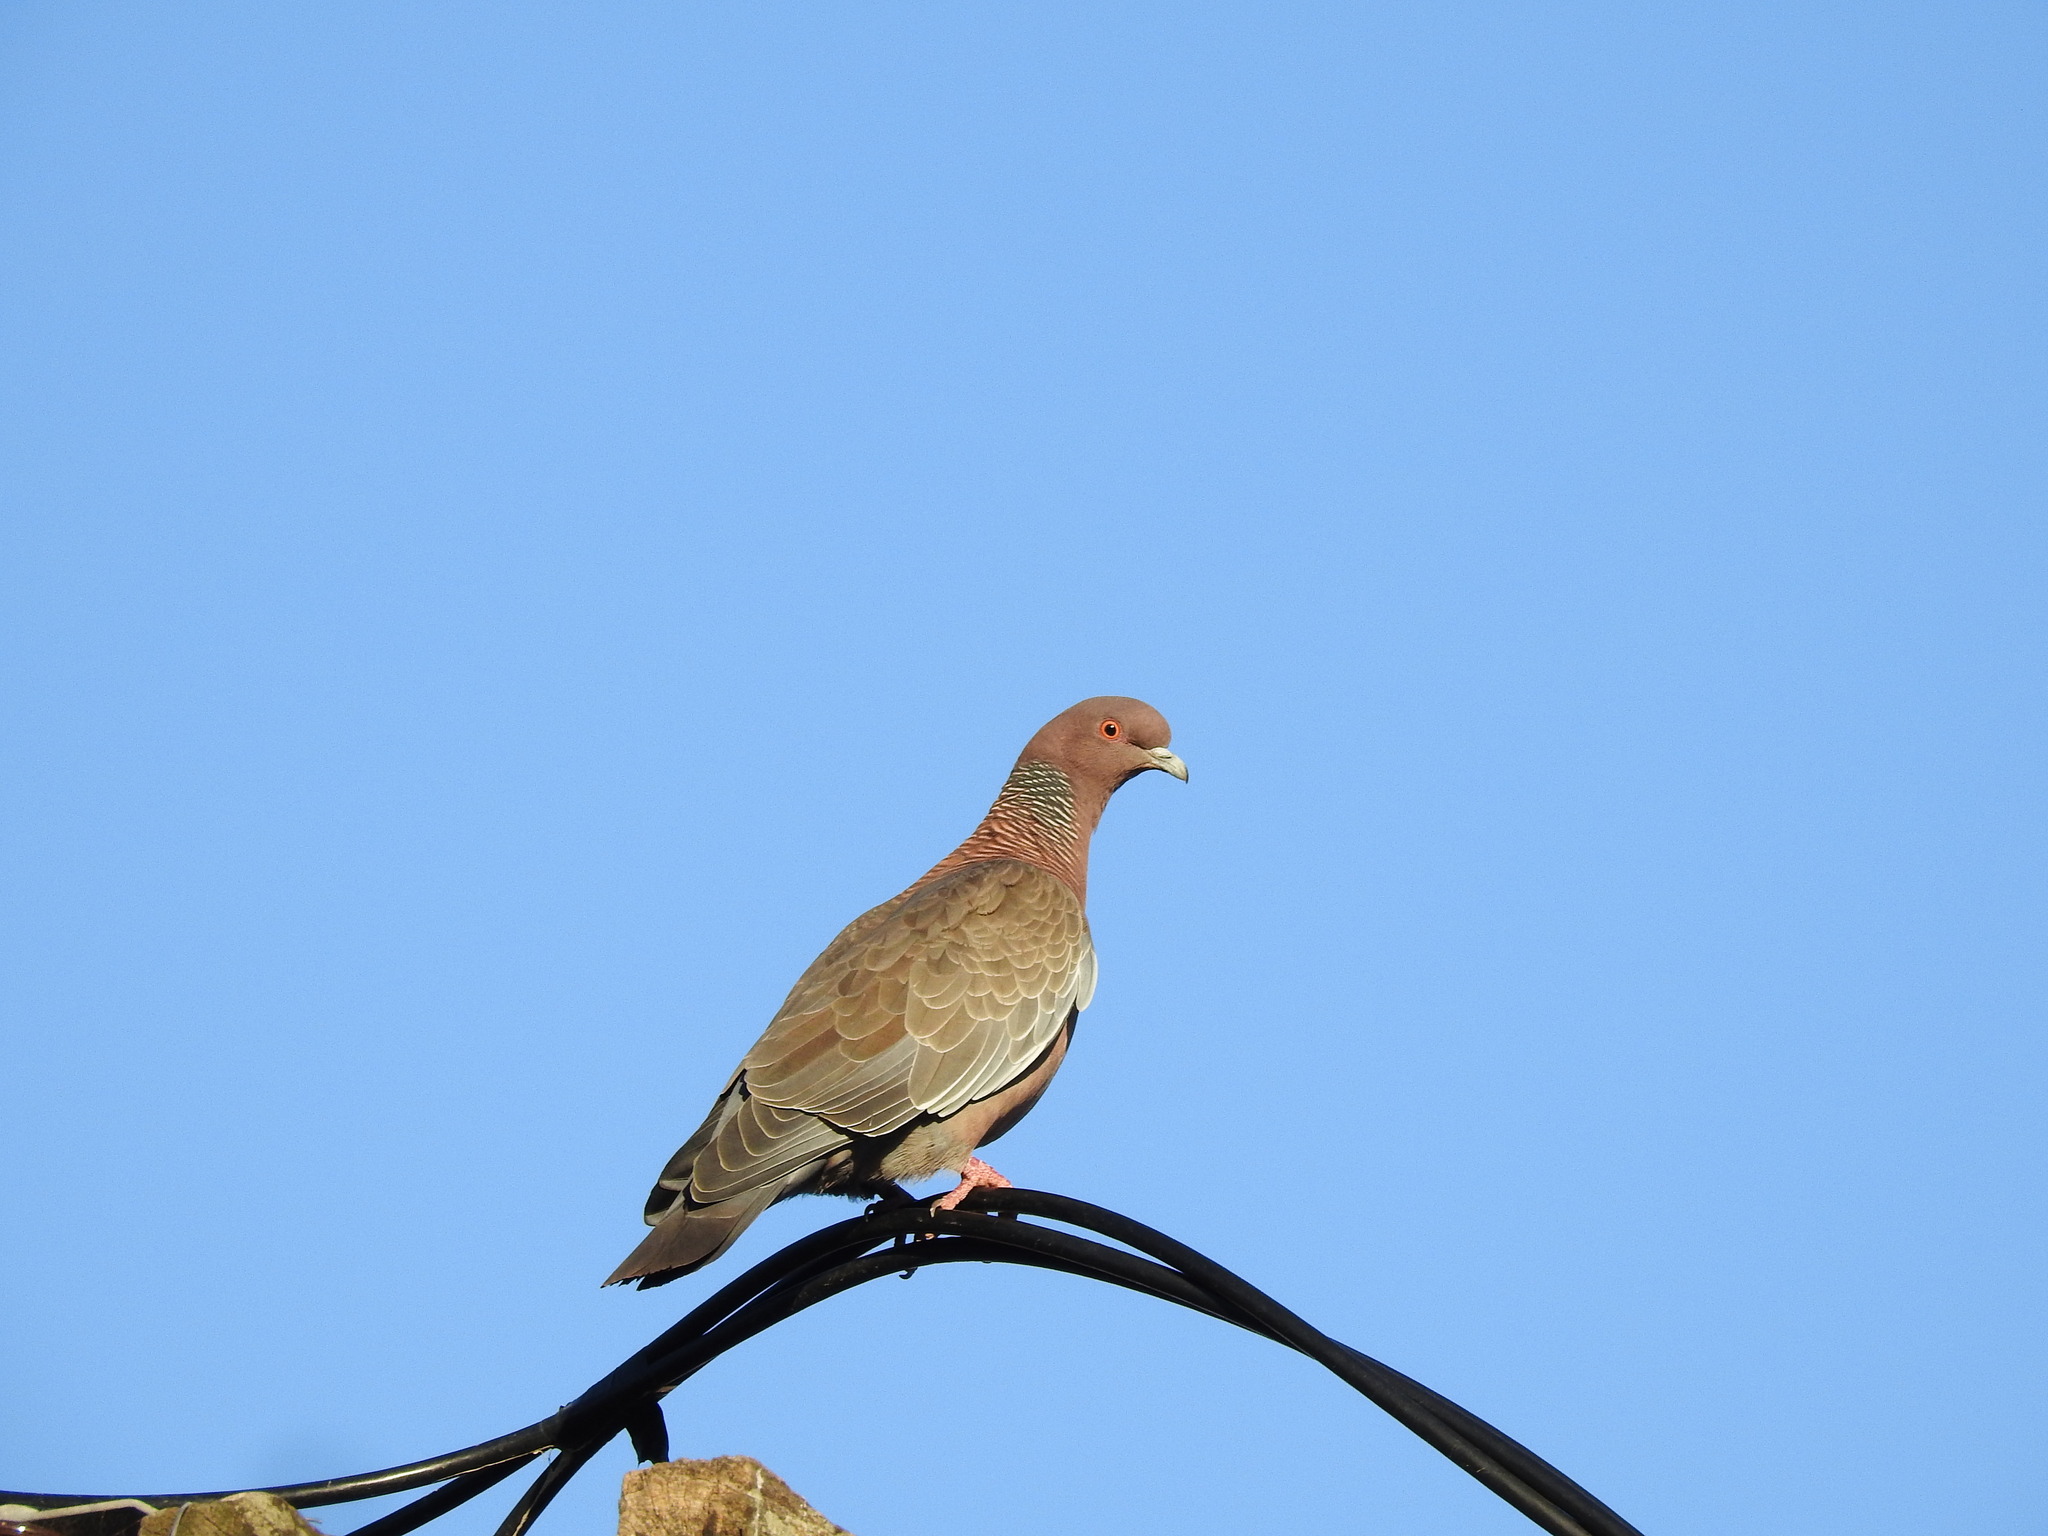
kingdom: Animalia
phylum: Chordata
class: Aves
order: Columbiformes
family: Columbidae
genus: Patagioenas
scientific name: Patagioenas picazuro
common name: Picazuro pigeon
